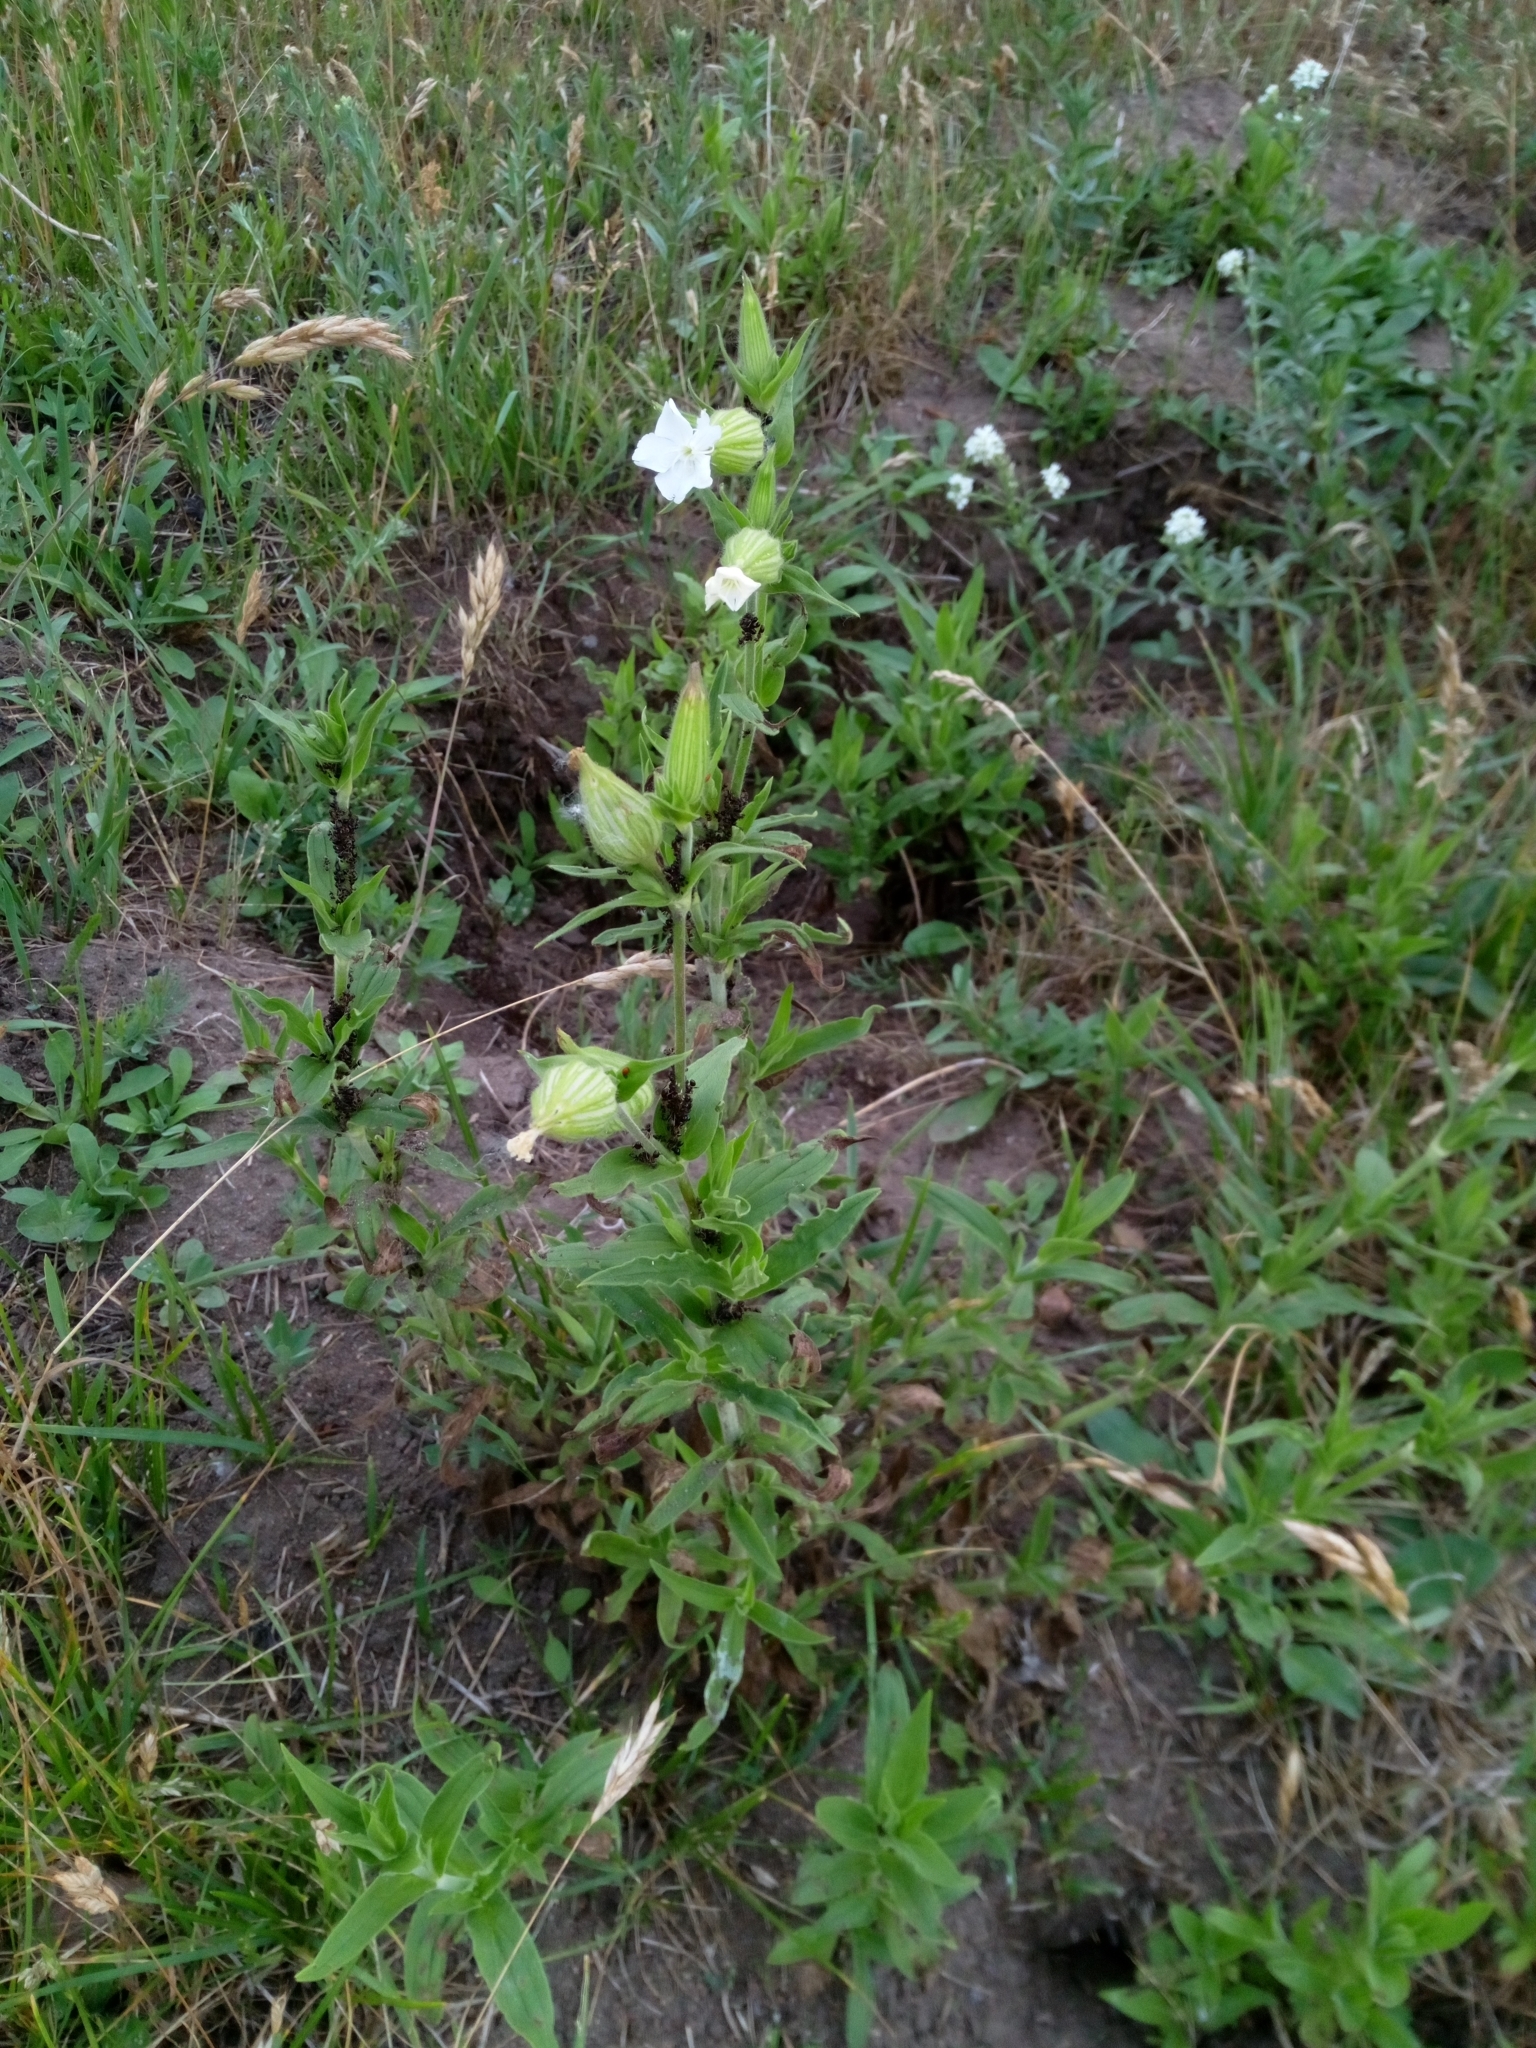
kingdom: Plantae
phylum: Tracheophyta
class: Magnoliopsida
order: Caryophyllales
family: Caryophyllaceae
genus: Silene
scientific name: Silene latifolia
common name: White campion
